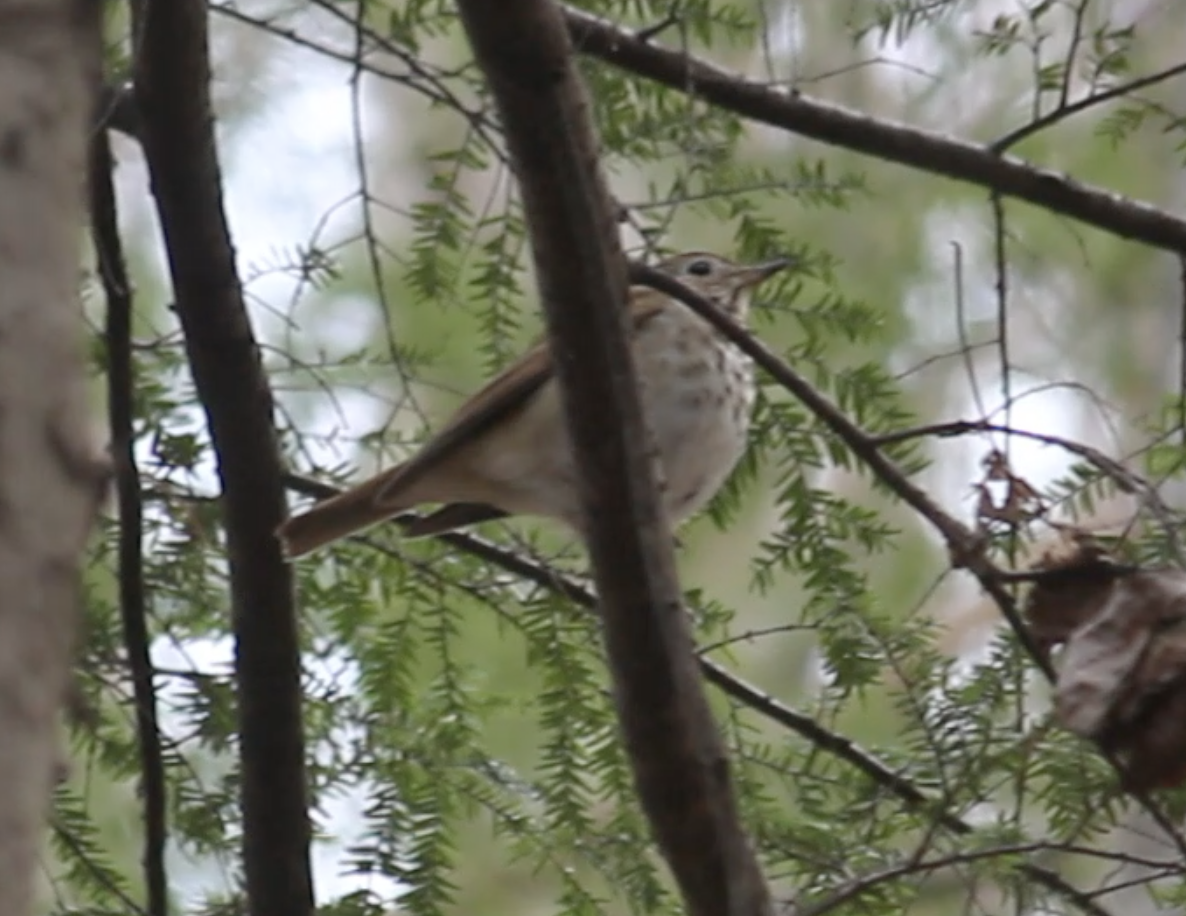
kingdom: Animalia
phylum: Chordata
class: Aves
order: Passeriformes
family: Turdidae
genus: Catharus
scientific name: Catharus guttatus
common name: Hermit thrush
